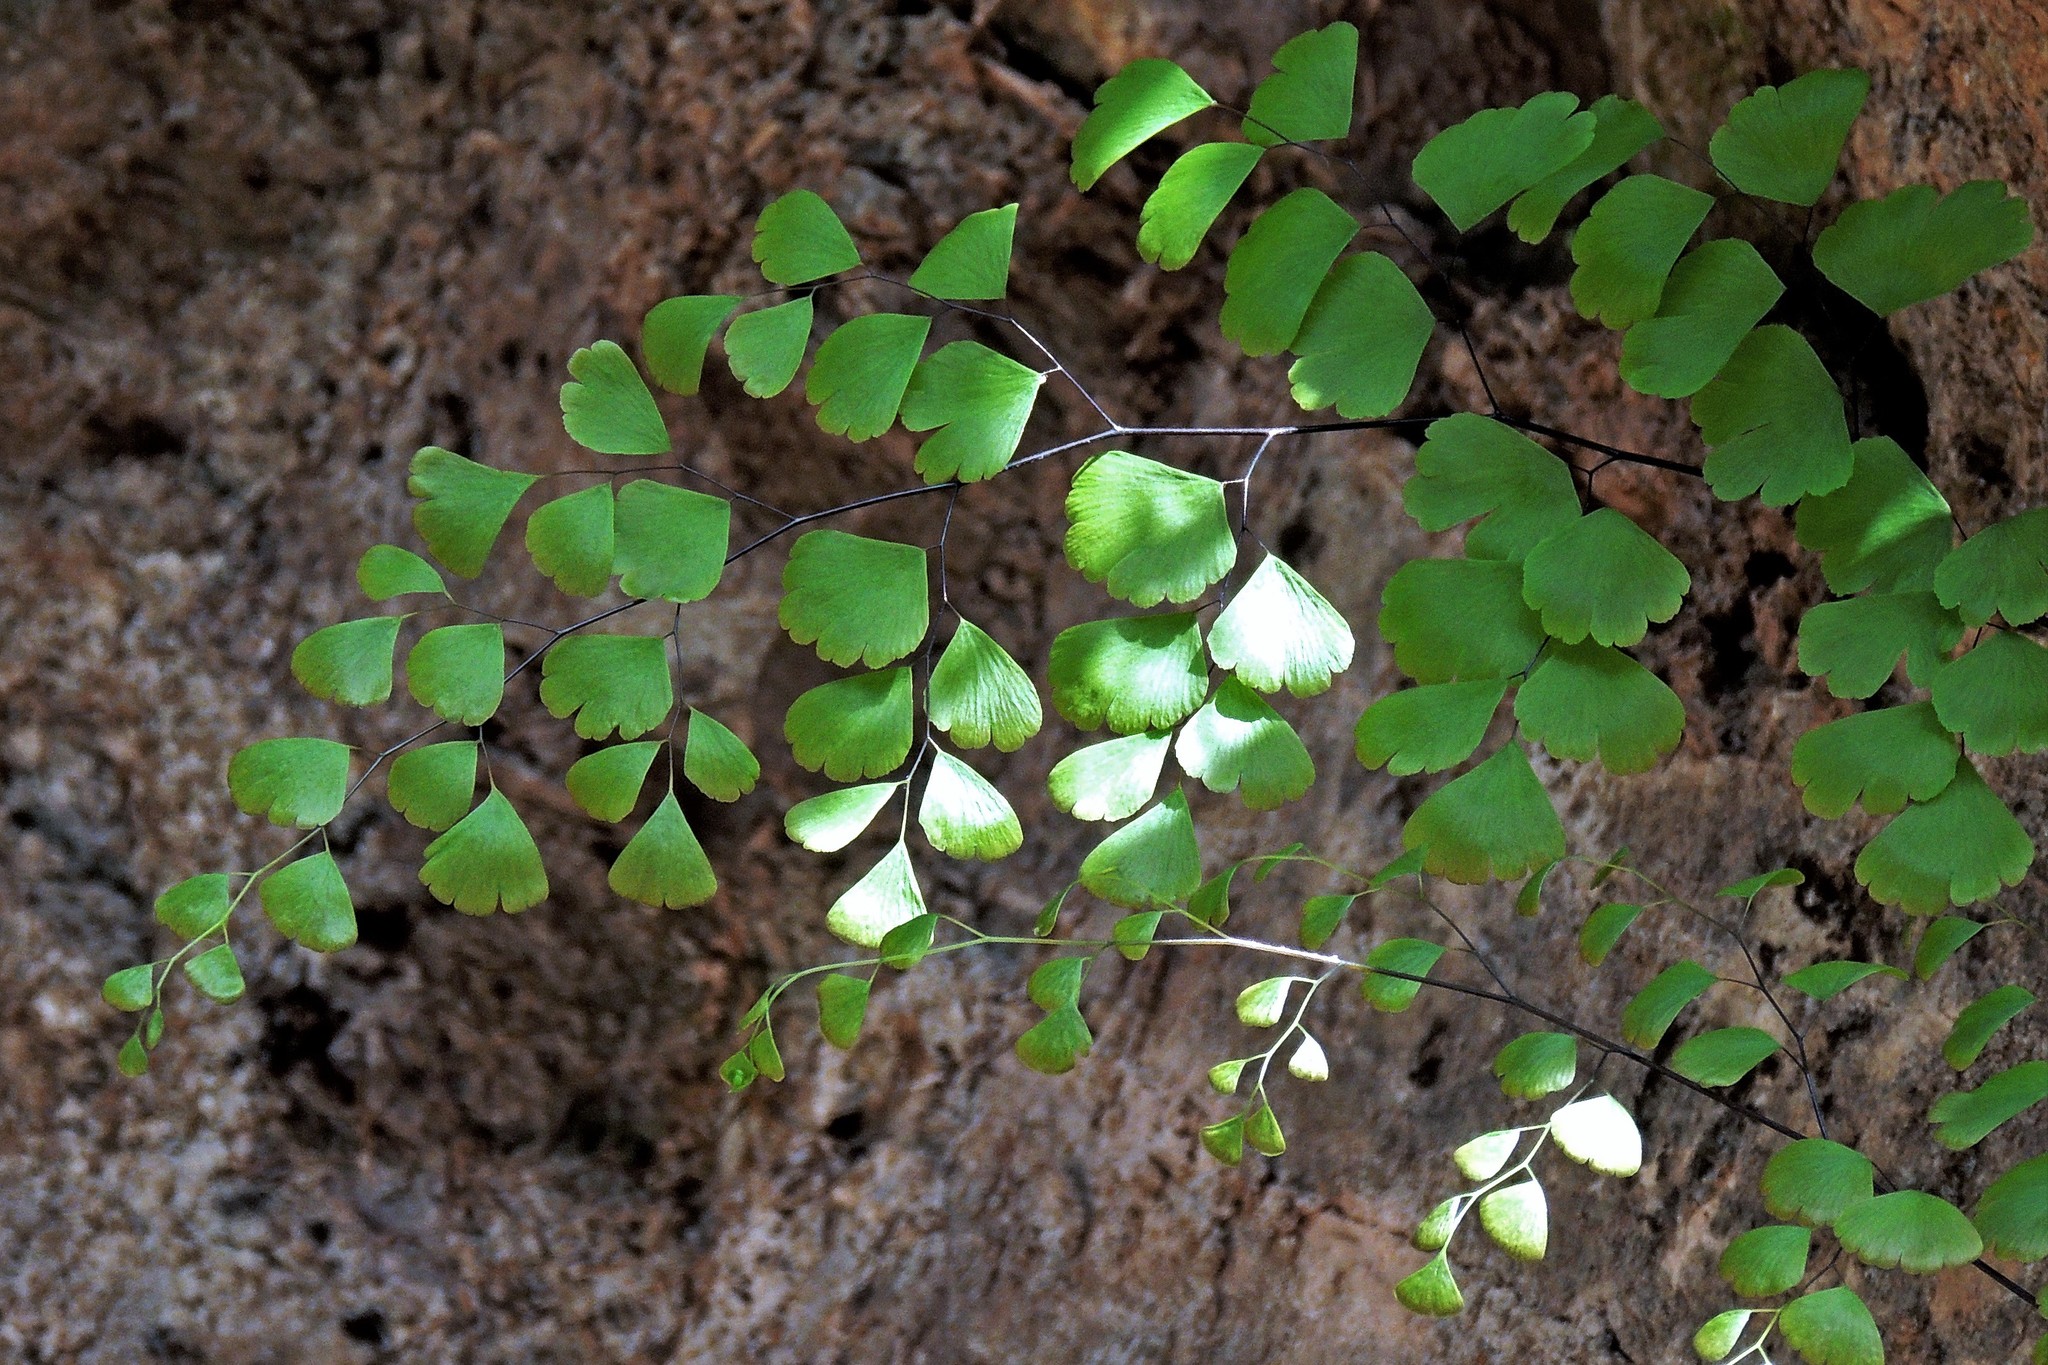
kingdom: Plantae
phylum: Tracheophyta
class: Polypodiopsida
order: Polypodiales
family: Pteridaceae
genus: Adiantum
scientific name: Adiantum capillus-veneris
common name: Maidenhair fern
